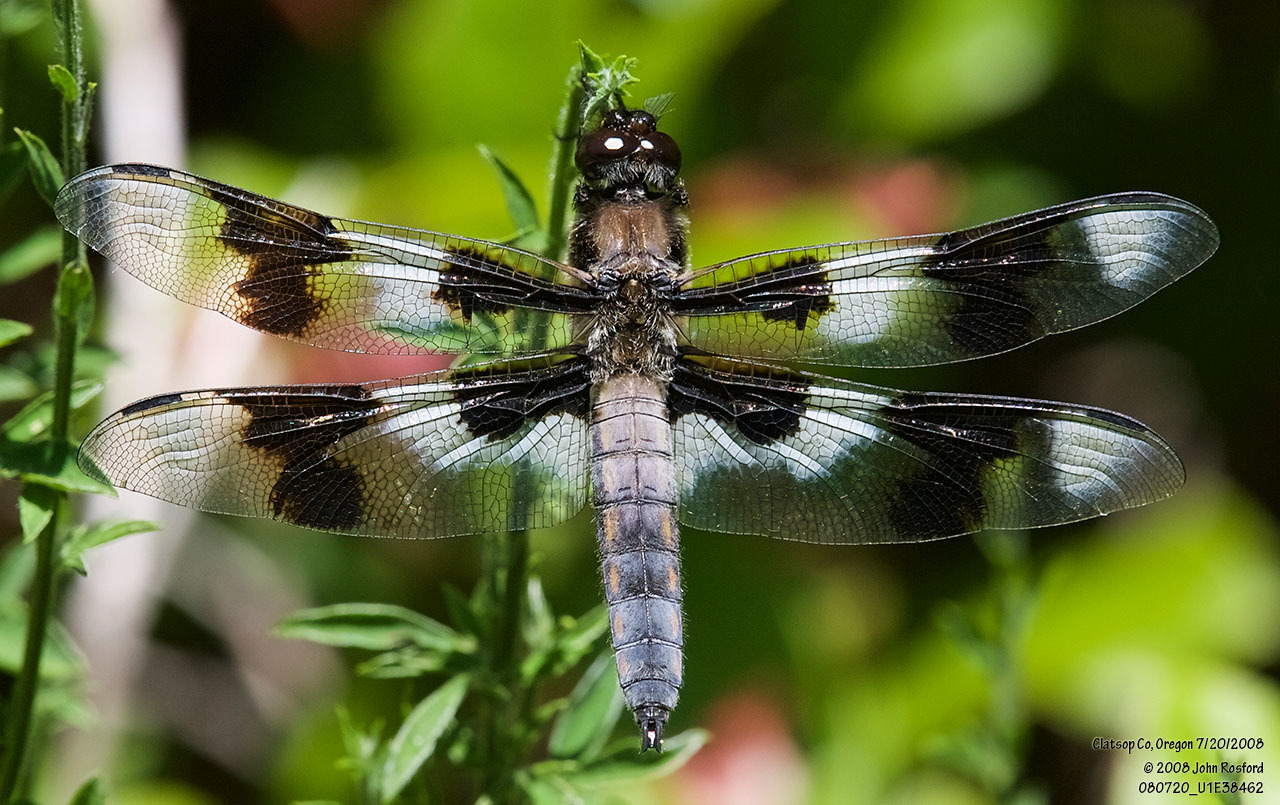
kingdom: Animalia
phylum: Arthropoda
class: Insecta
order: Odonata
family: Libellulidae
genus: Libellula
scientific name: Libellula forensis
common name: Eight-spotted skimmer
